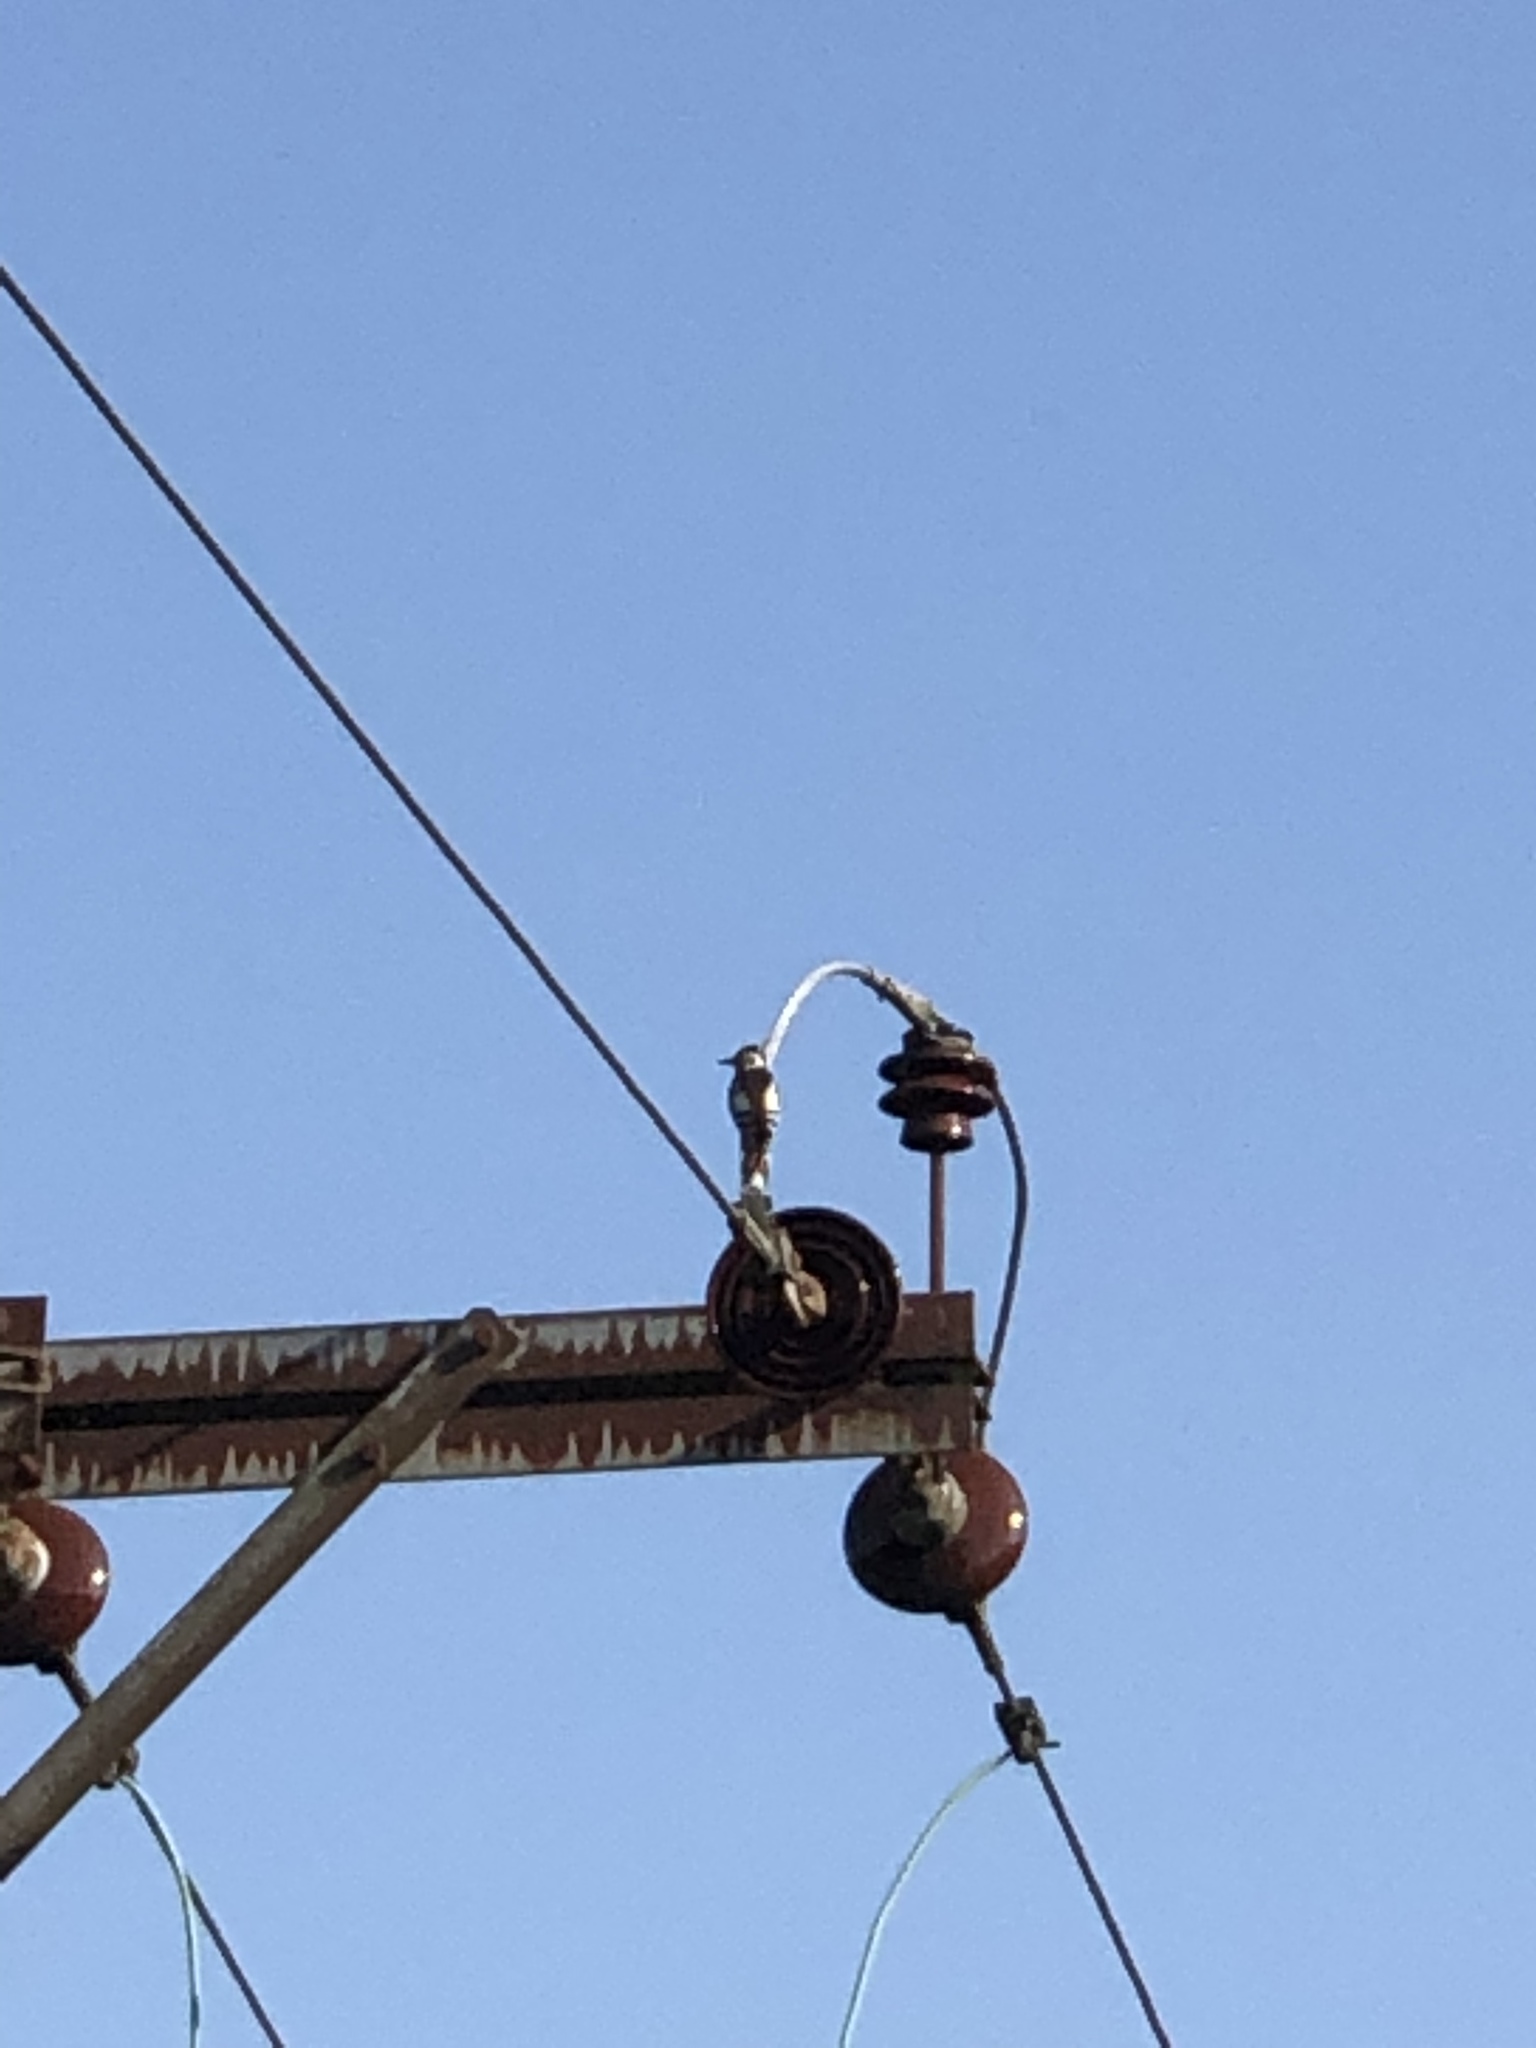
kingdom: Animalia
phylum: Chordata
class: Aves
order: Piciformes
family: Picidae
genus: Dendrocopos
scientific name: Dendrocopos major
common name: Great spotted woodpecker
